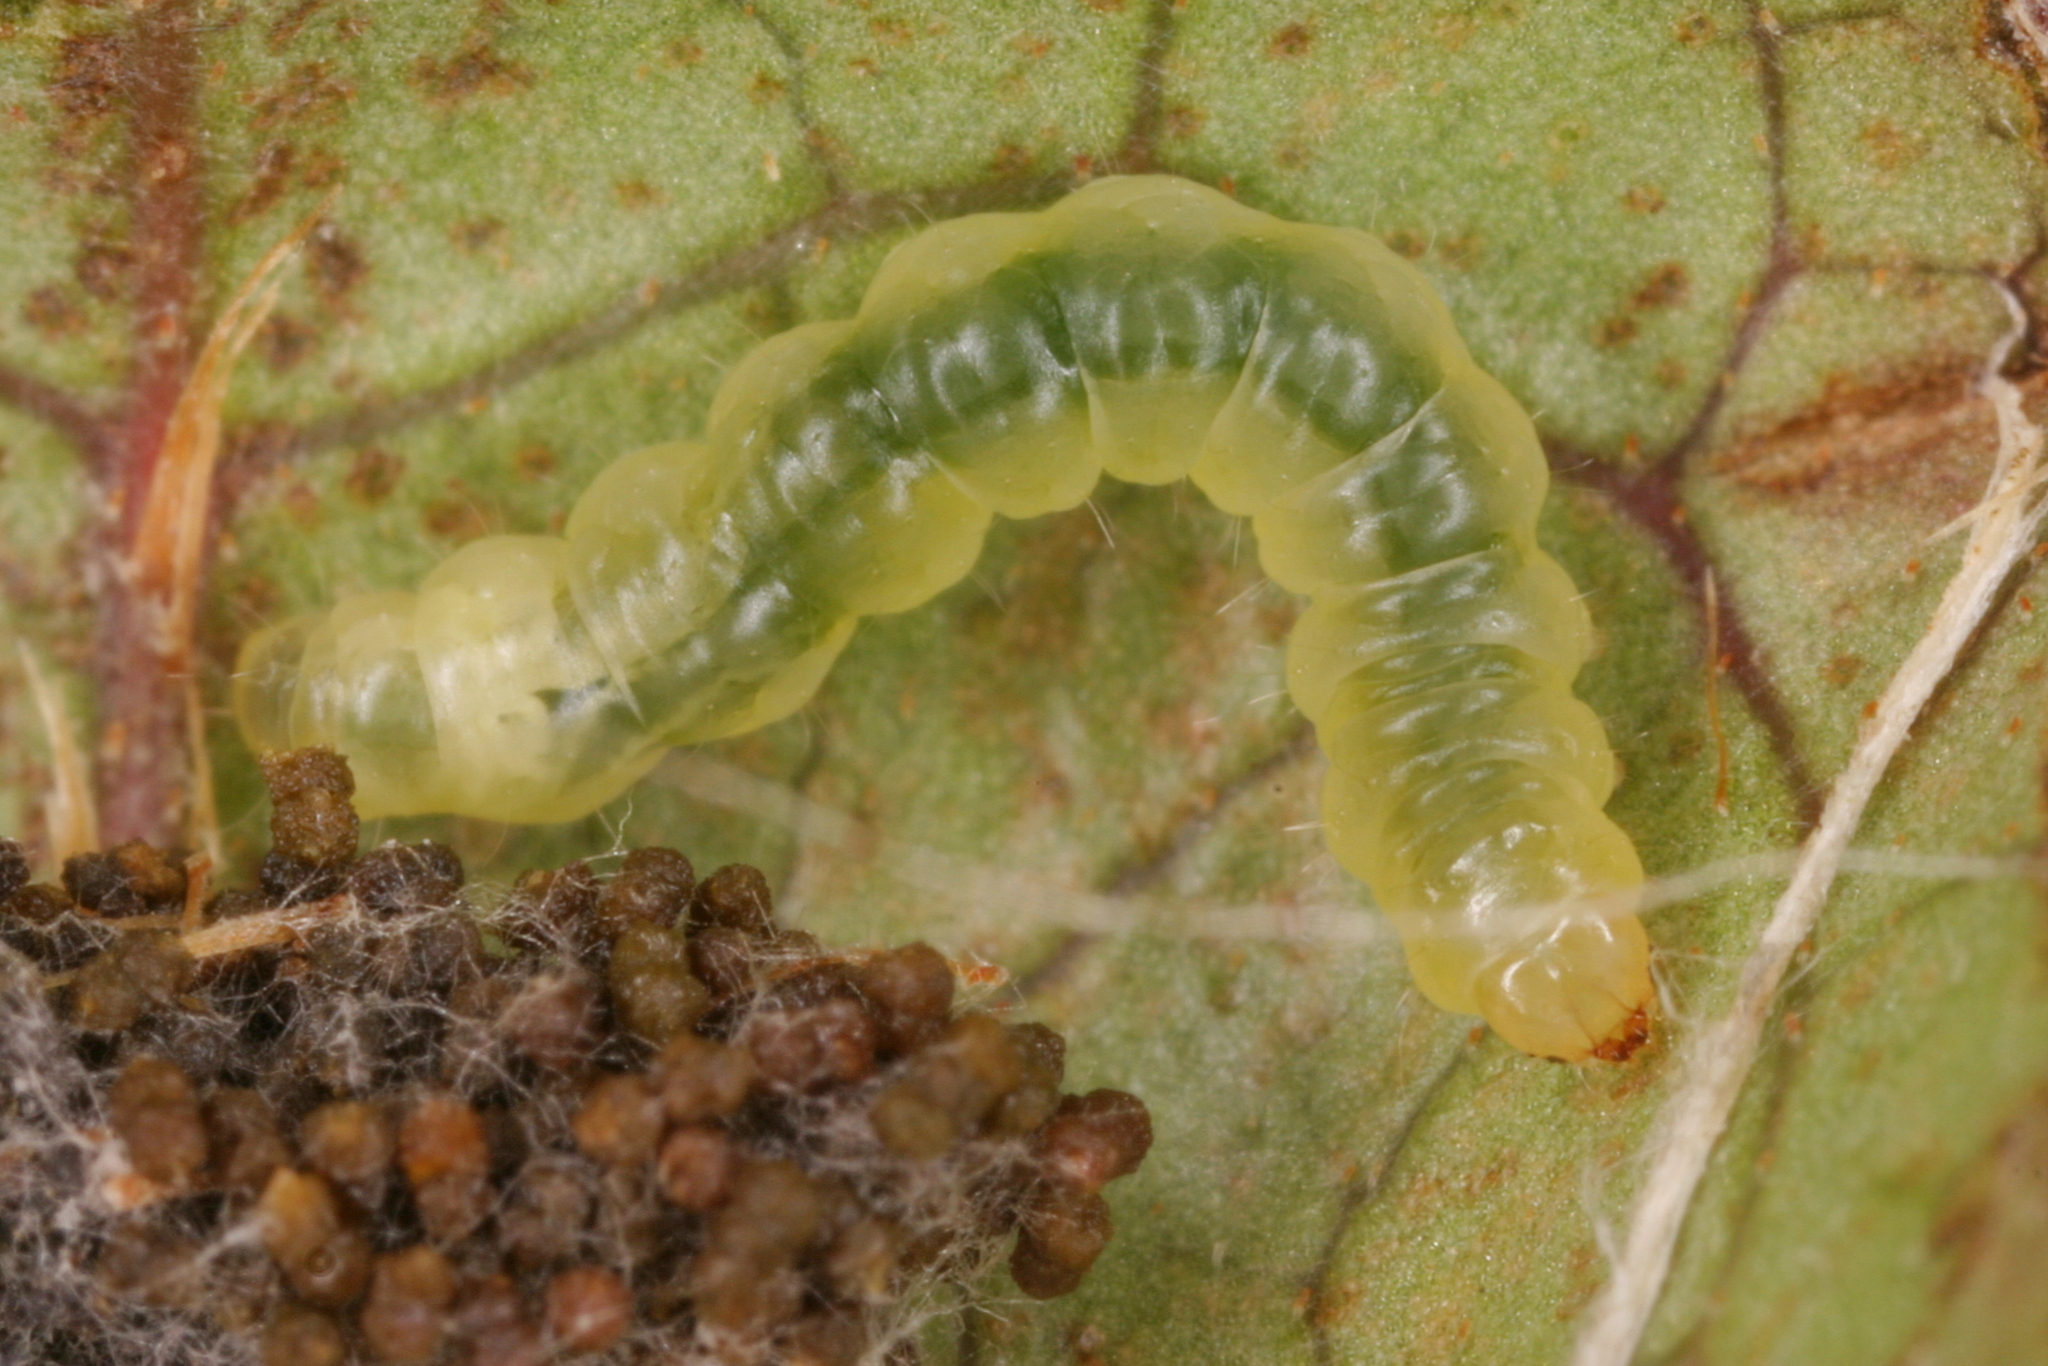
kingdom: Animalia
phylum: Arthropoda
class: Insecta
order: Lepidoptera
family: Gracillariidae
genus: Caloptilia
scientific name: Caloptilia azaleella
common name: Azalea leafminer
